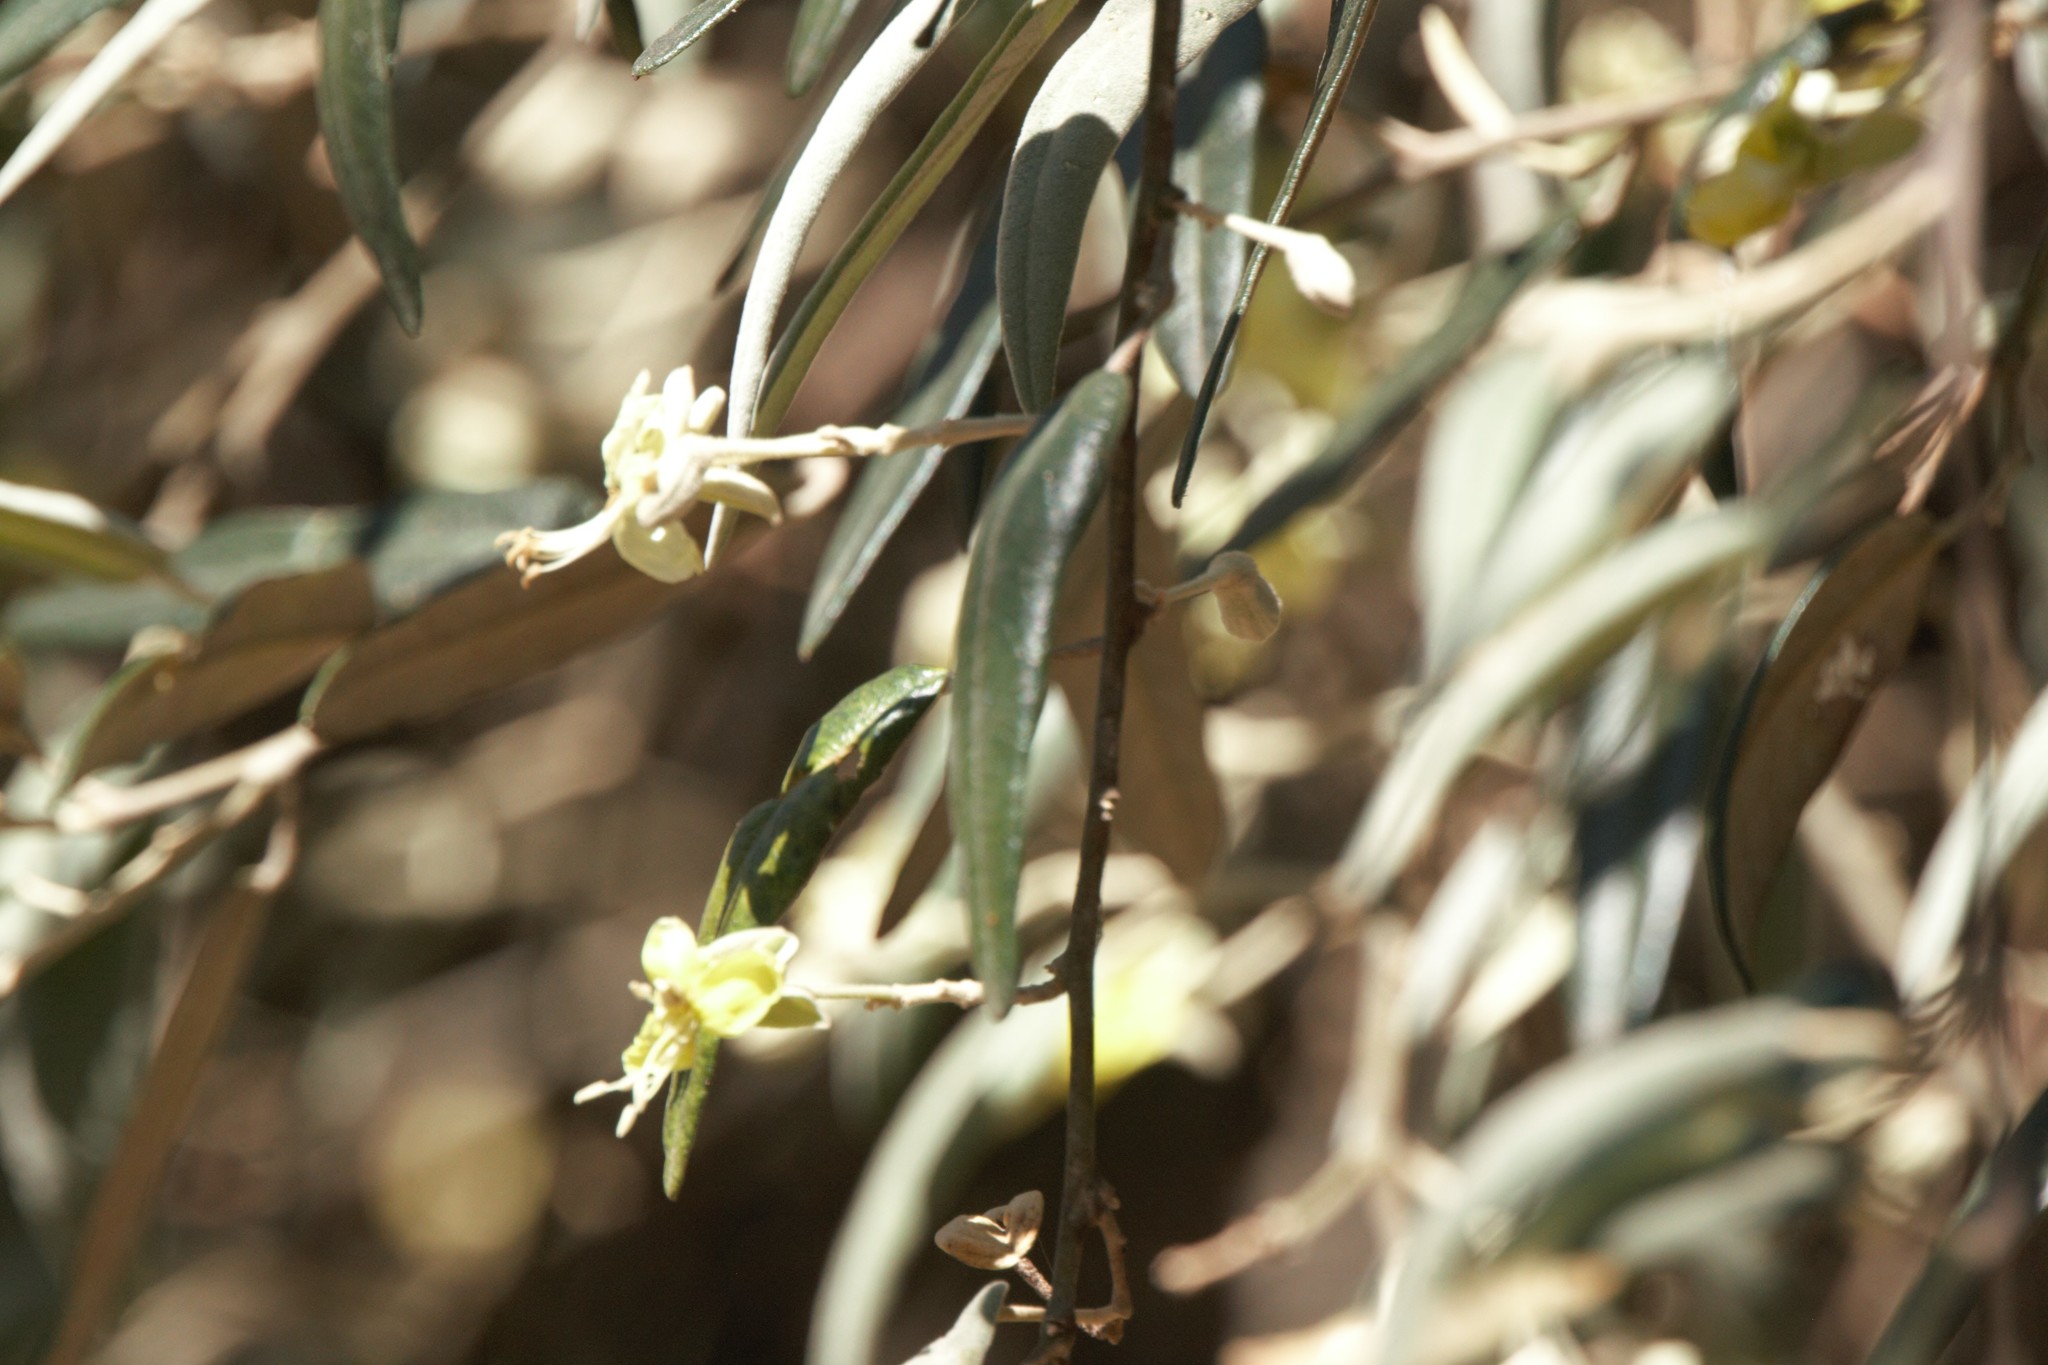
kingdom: Plantae
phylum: Tracheophyta
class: Magnoliopsida
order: Brassicales
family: Capparaceae
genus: Sarcotoxicum
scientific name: Sarcotoxicum salicifolium
